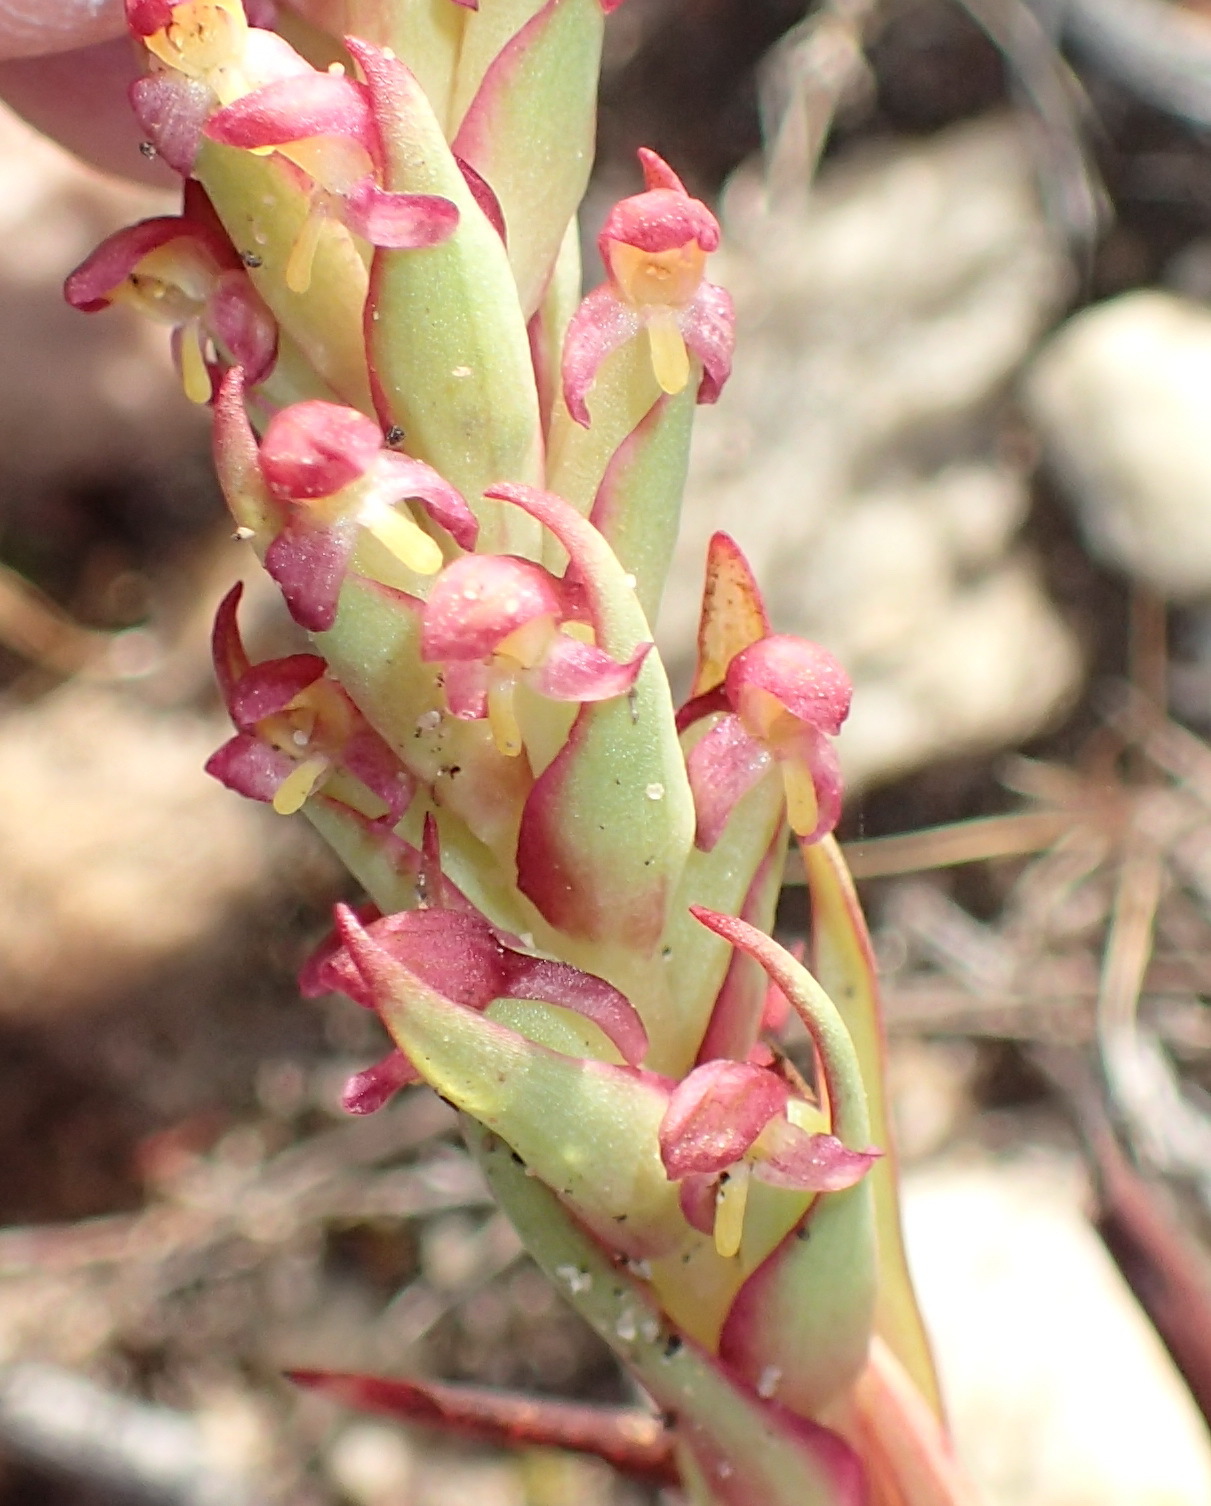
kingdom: Plantae
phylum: Tracheophyta
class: Liliopsida
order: Asparagales
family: Orchidaceae
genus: Disa
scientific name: Disa bracteata
